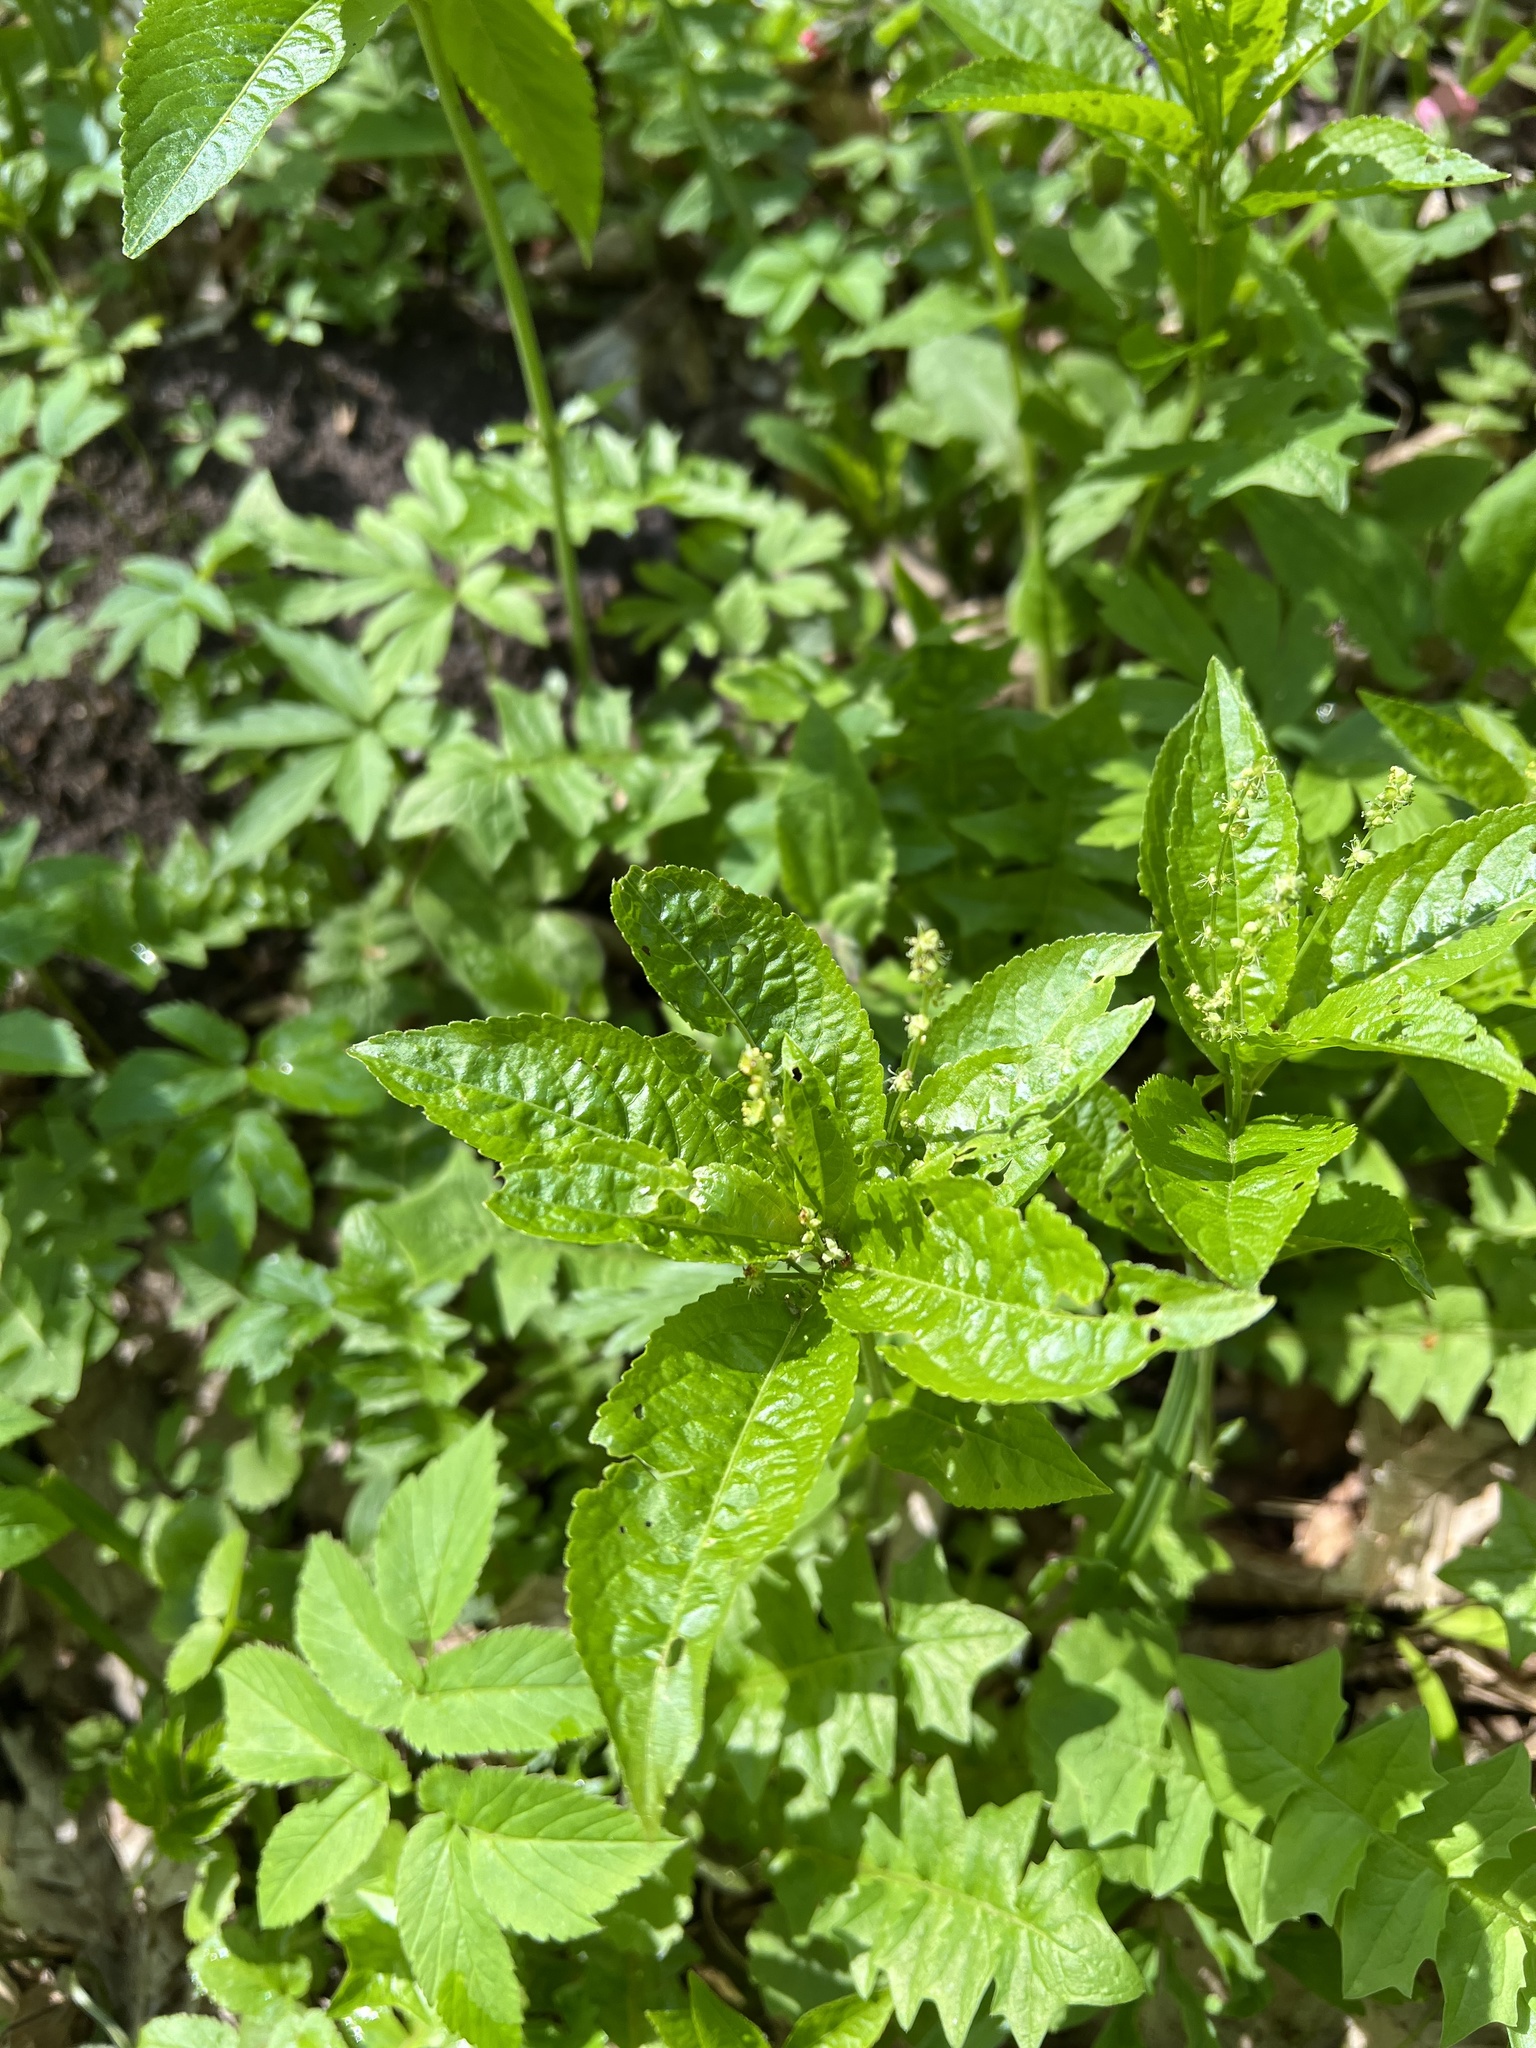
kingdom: Plantae
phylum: Tracheophyta
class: Magnoliopsida
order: Malpighiales
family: Euphorbiaceae
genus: Mercurialis
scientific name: Mercurialis perennis
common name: Dog mercury
